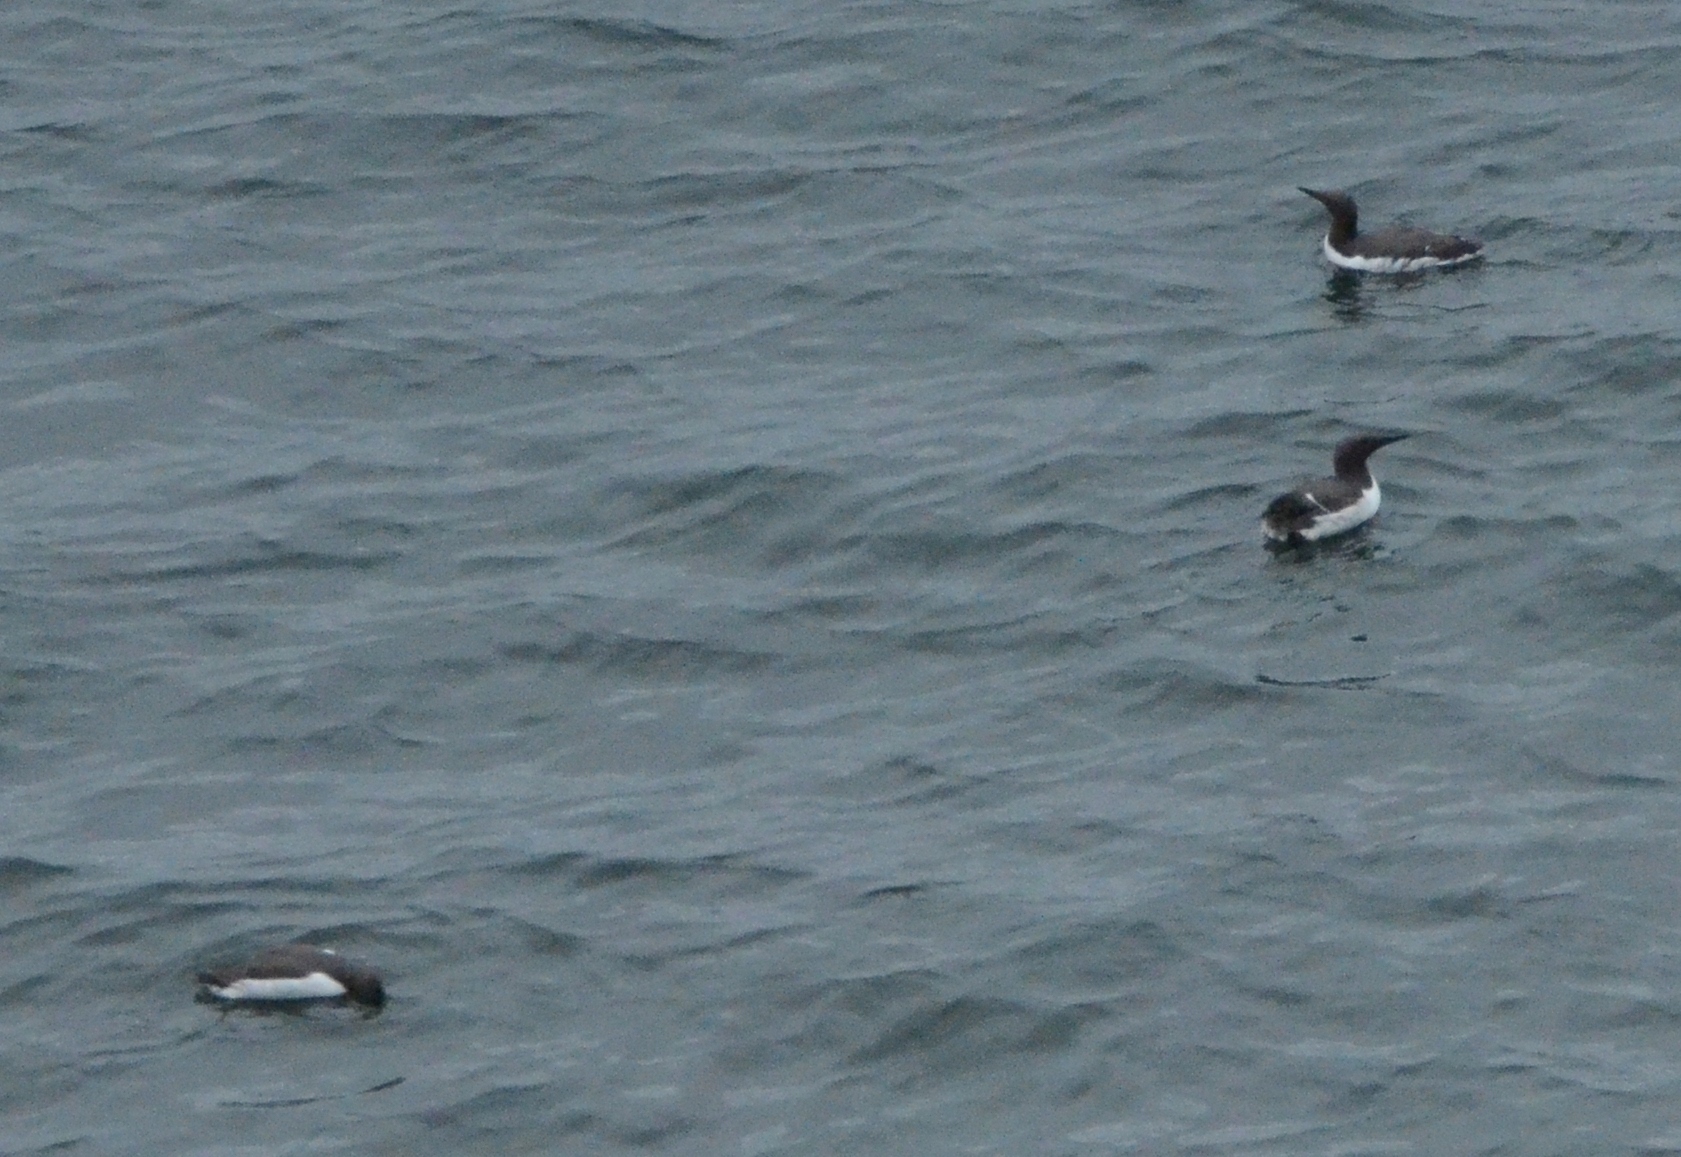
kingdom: Animalia
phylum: Chordata
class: Aves
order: Charadriiformes
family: Alcidae
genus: Uria
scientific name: Uria aalge
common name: Common murre
